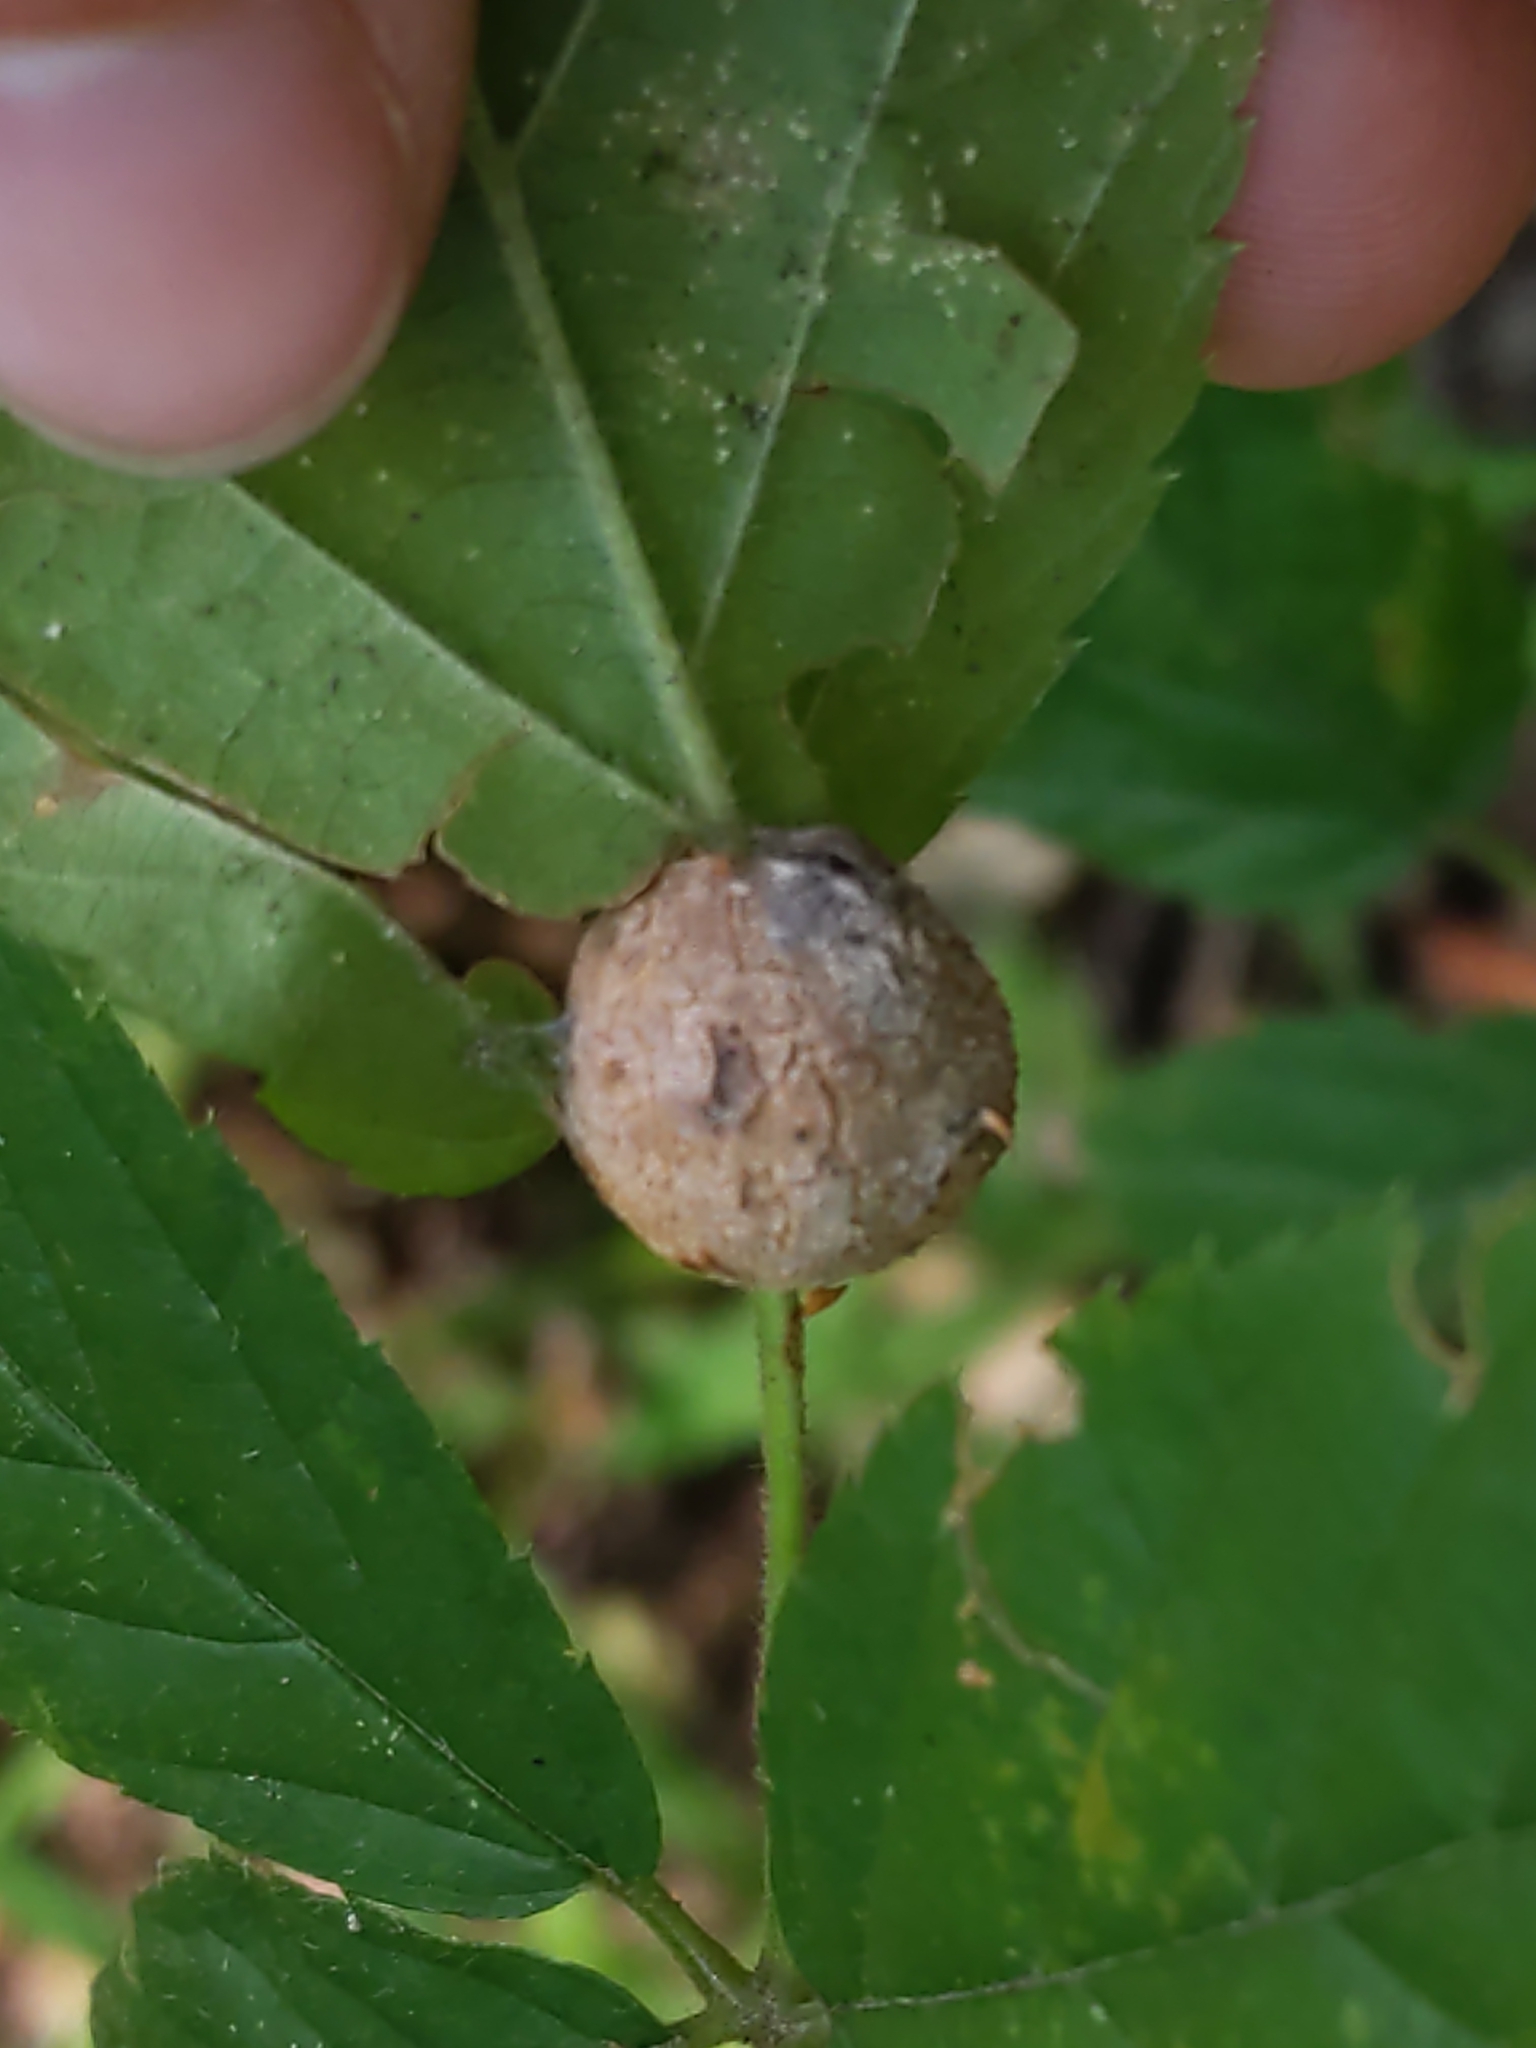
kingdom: Animalia
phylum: Arthropoda
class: Insecta
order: Diptera
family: Cecidomyiidae
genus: Neolasioptera
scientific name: Neolasioptera farinosa
